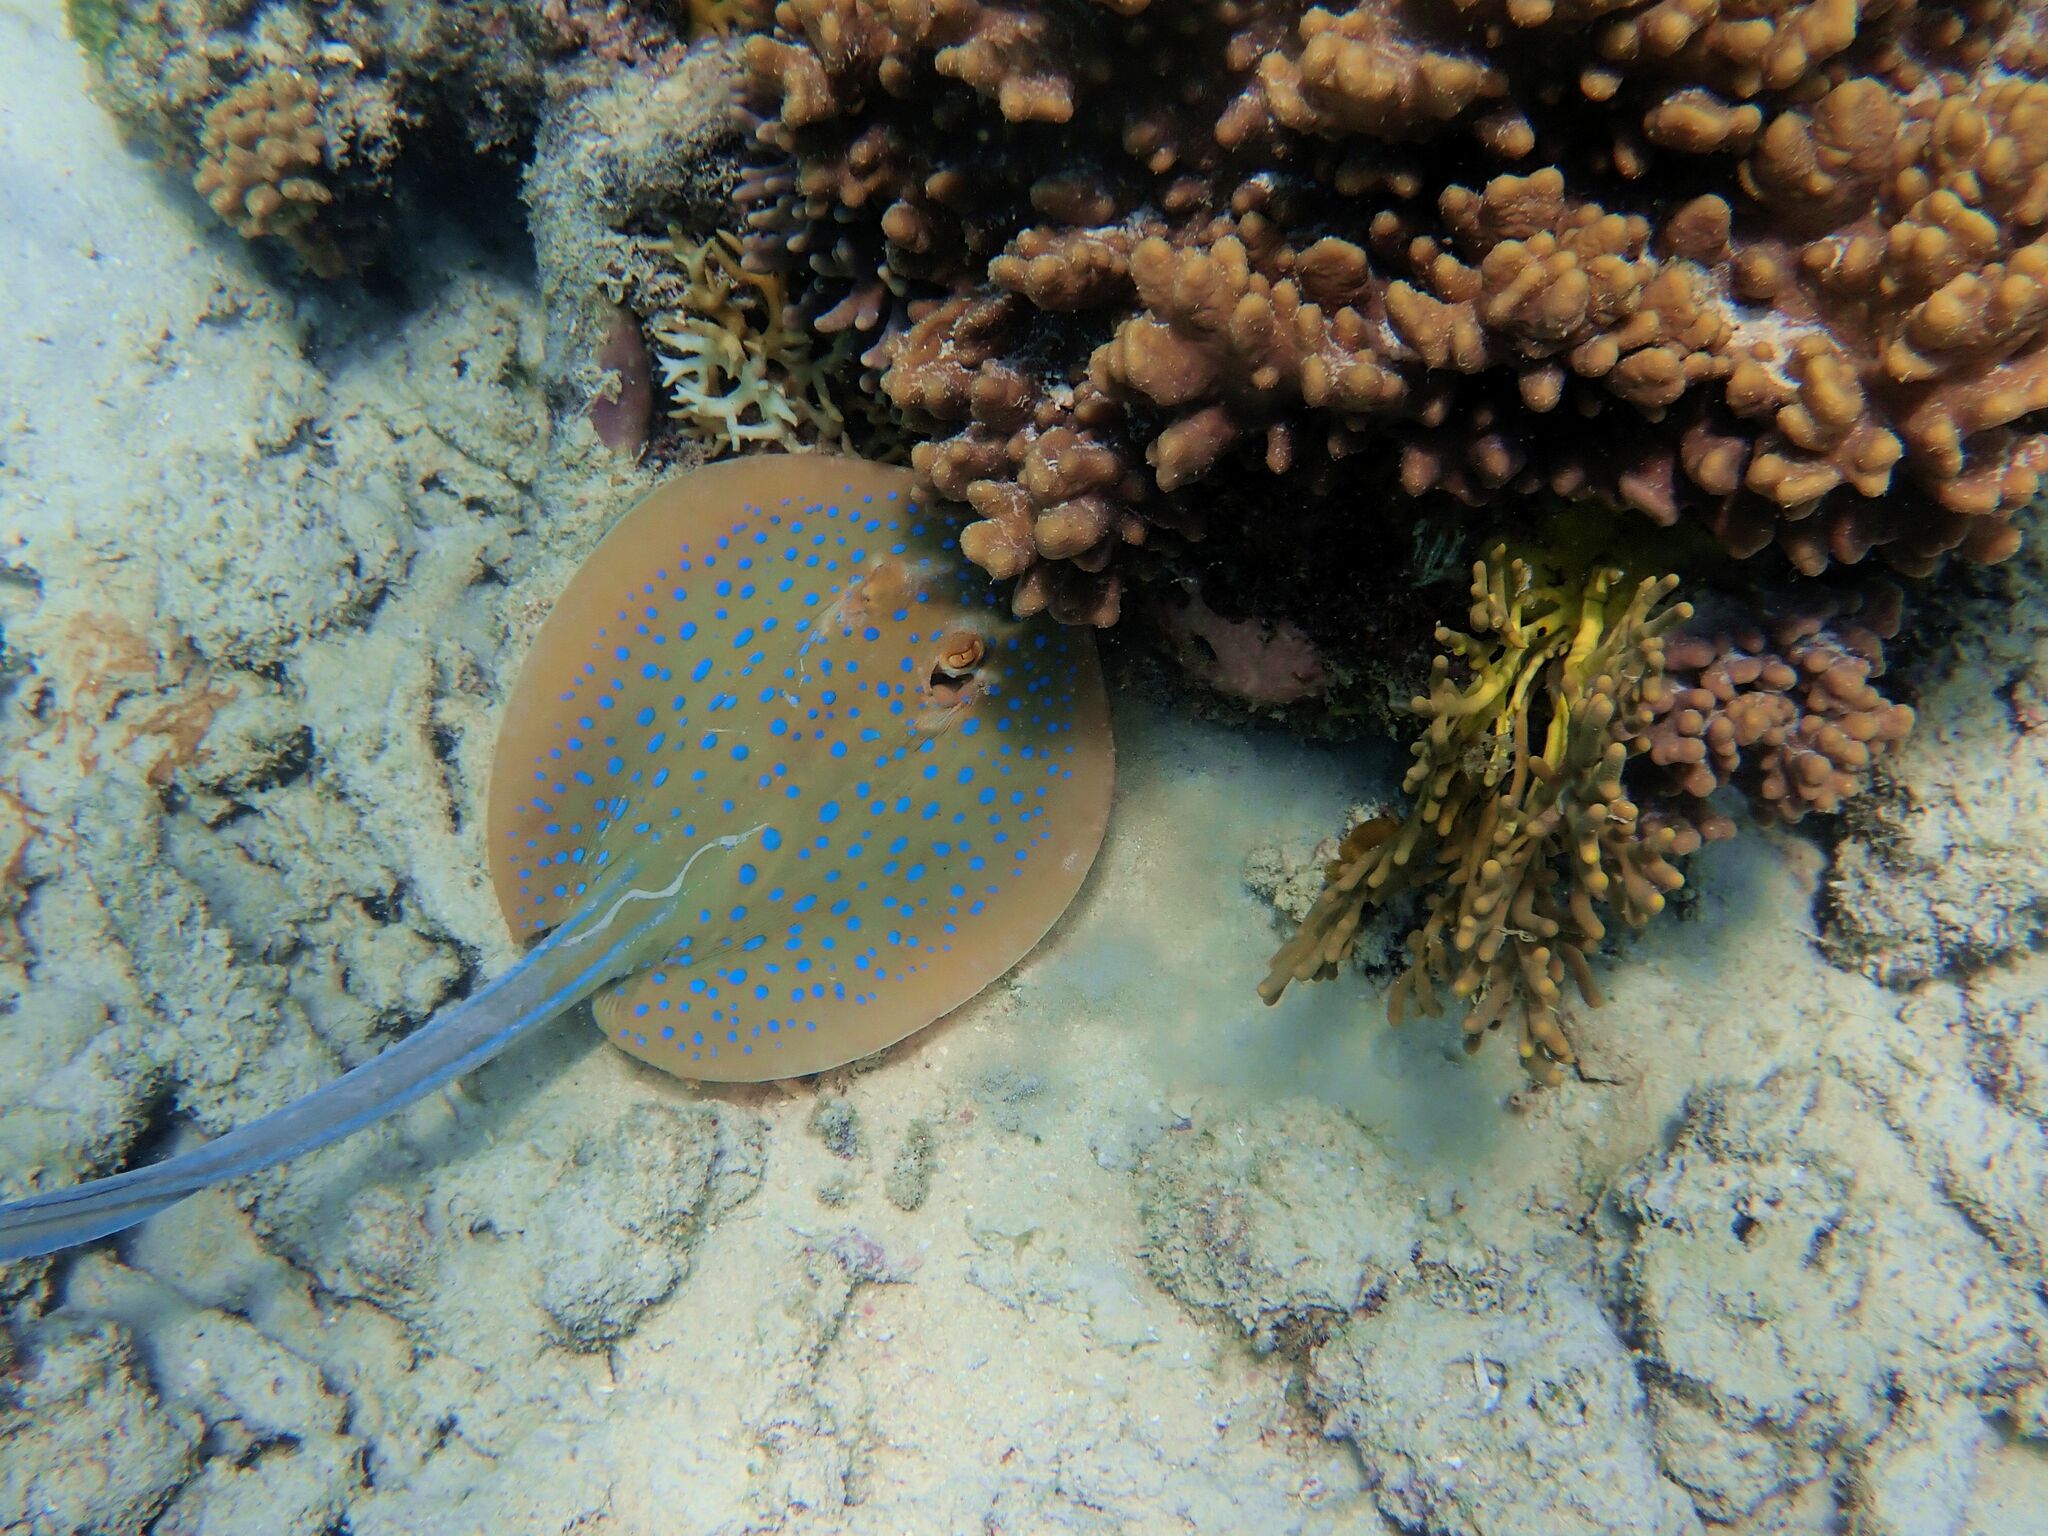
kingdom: Animalia
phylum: Chordata
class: Elasmobranchii
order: Myliobatiformes
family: Dasyatidae
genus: Taeniura
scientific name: Taeniura lymma
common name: Bluespotted ribbontail ray
